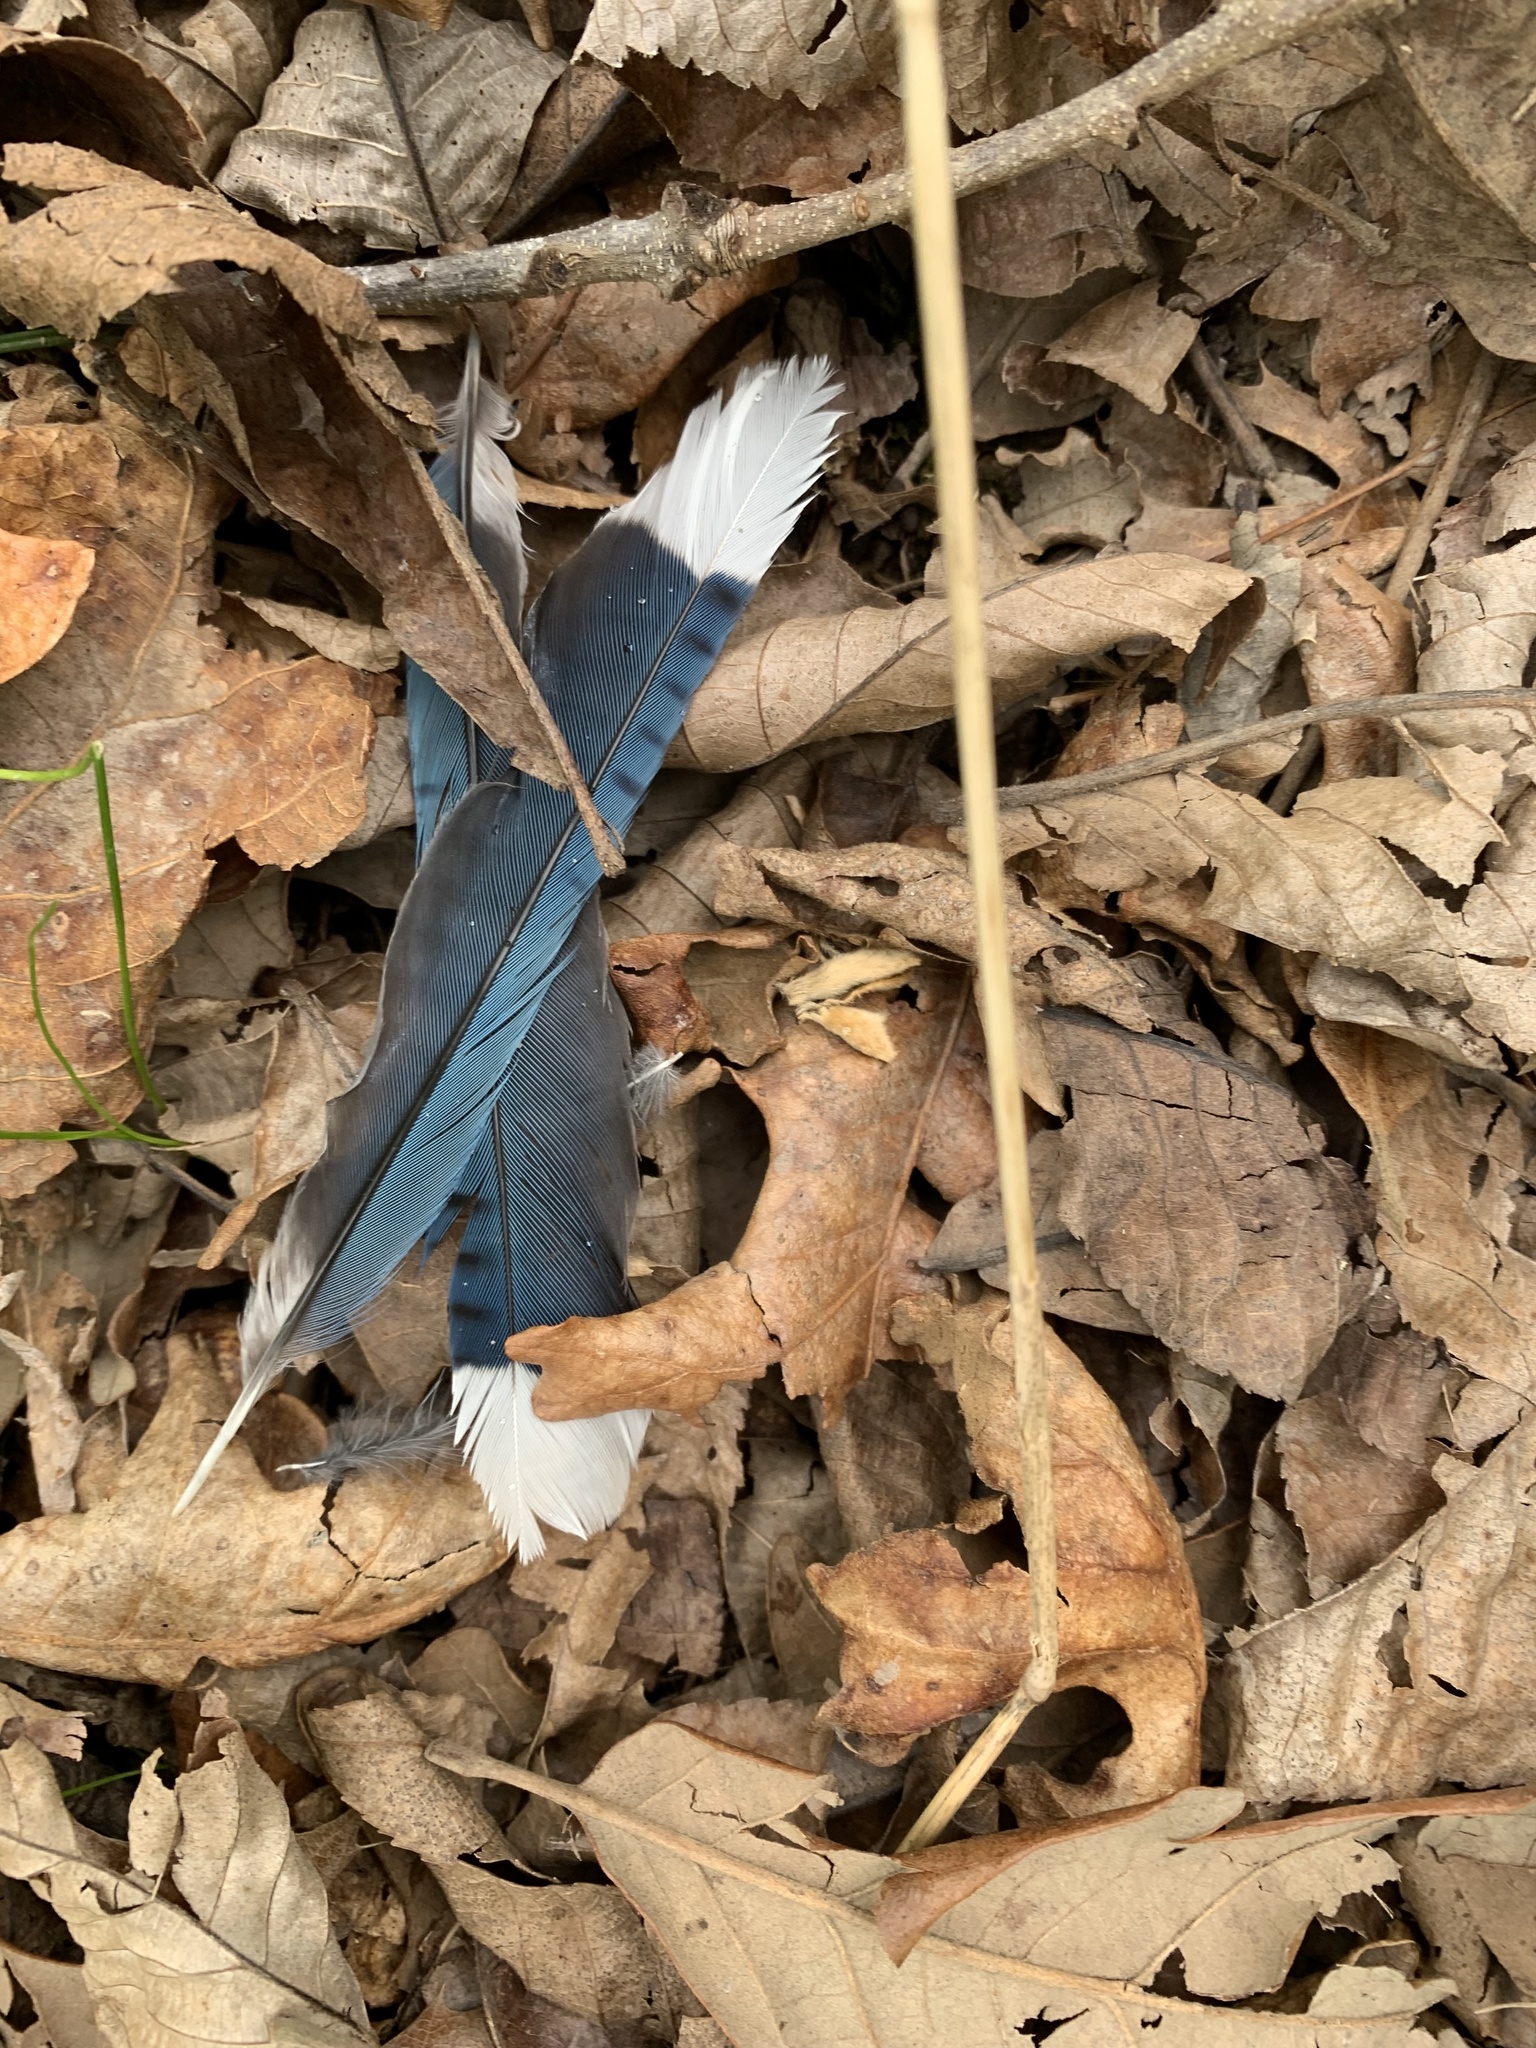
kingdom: Animalia
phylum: Chordata
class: Aves
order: Passeriformes
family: Corvidae
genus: Cyanocitta
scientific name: Cyanocitta cristata
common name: Blue jay
